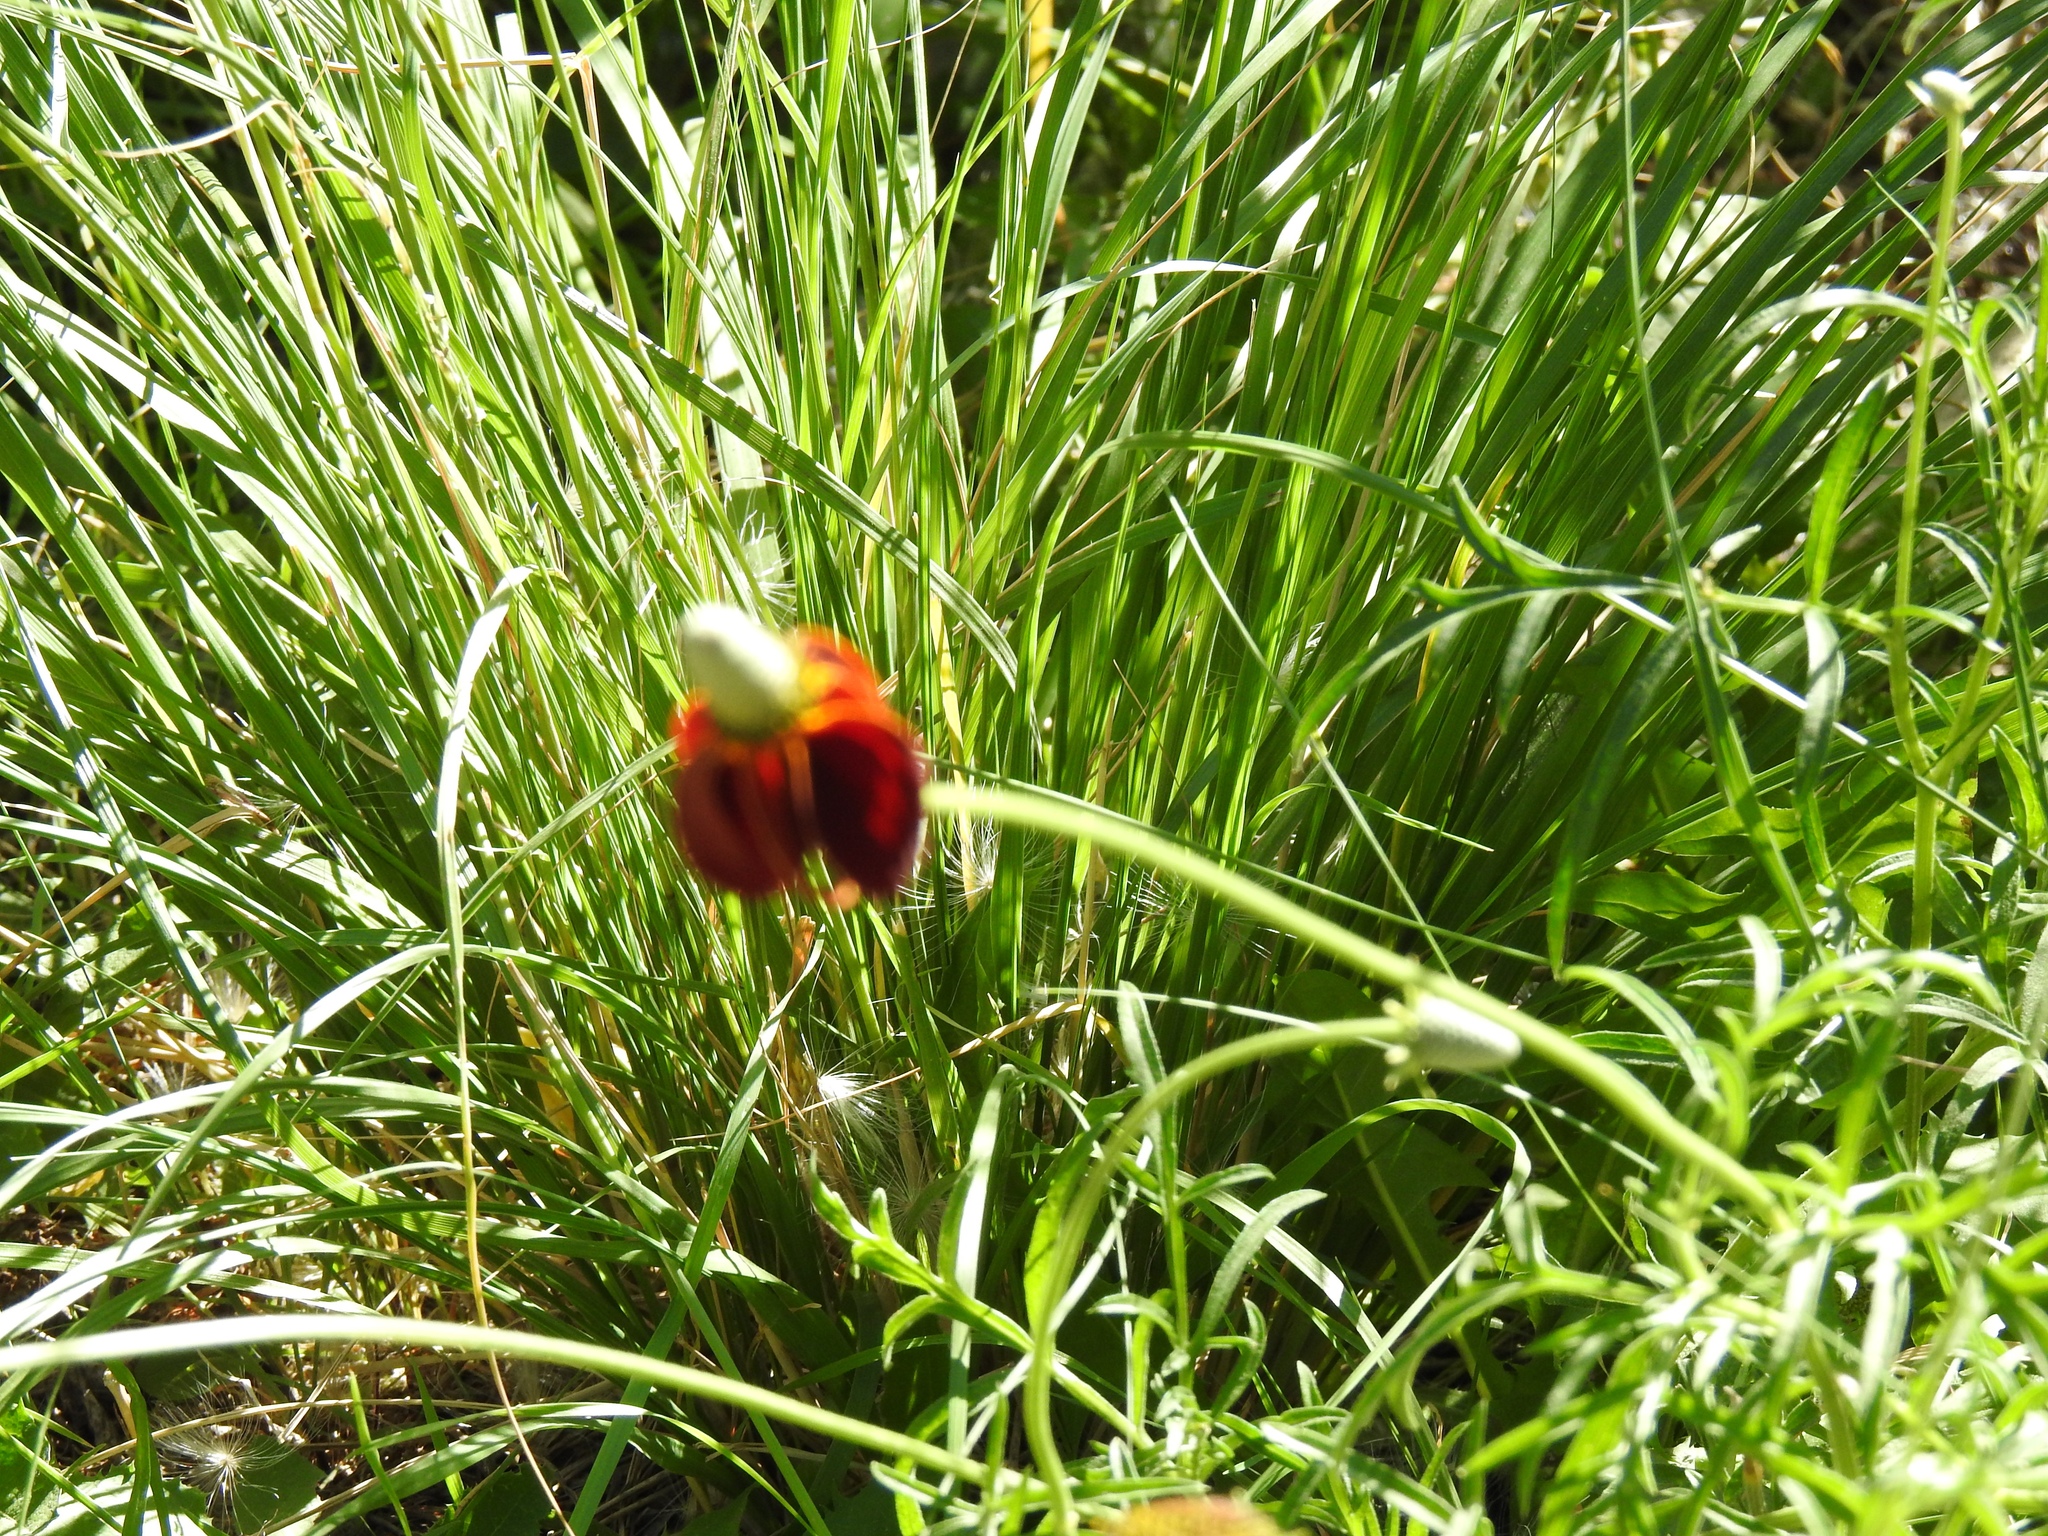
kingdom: Plantae
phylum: Tracheophyta
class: Magnoliopsida
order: Asterales
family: Asteraceae
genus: Ratibida
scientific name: Ratibida columnifera
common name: Prairie coneflower
